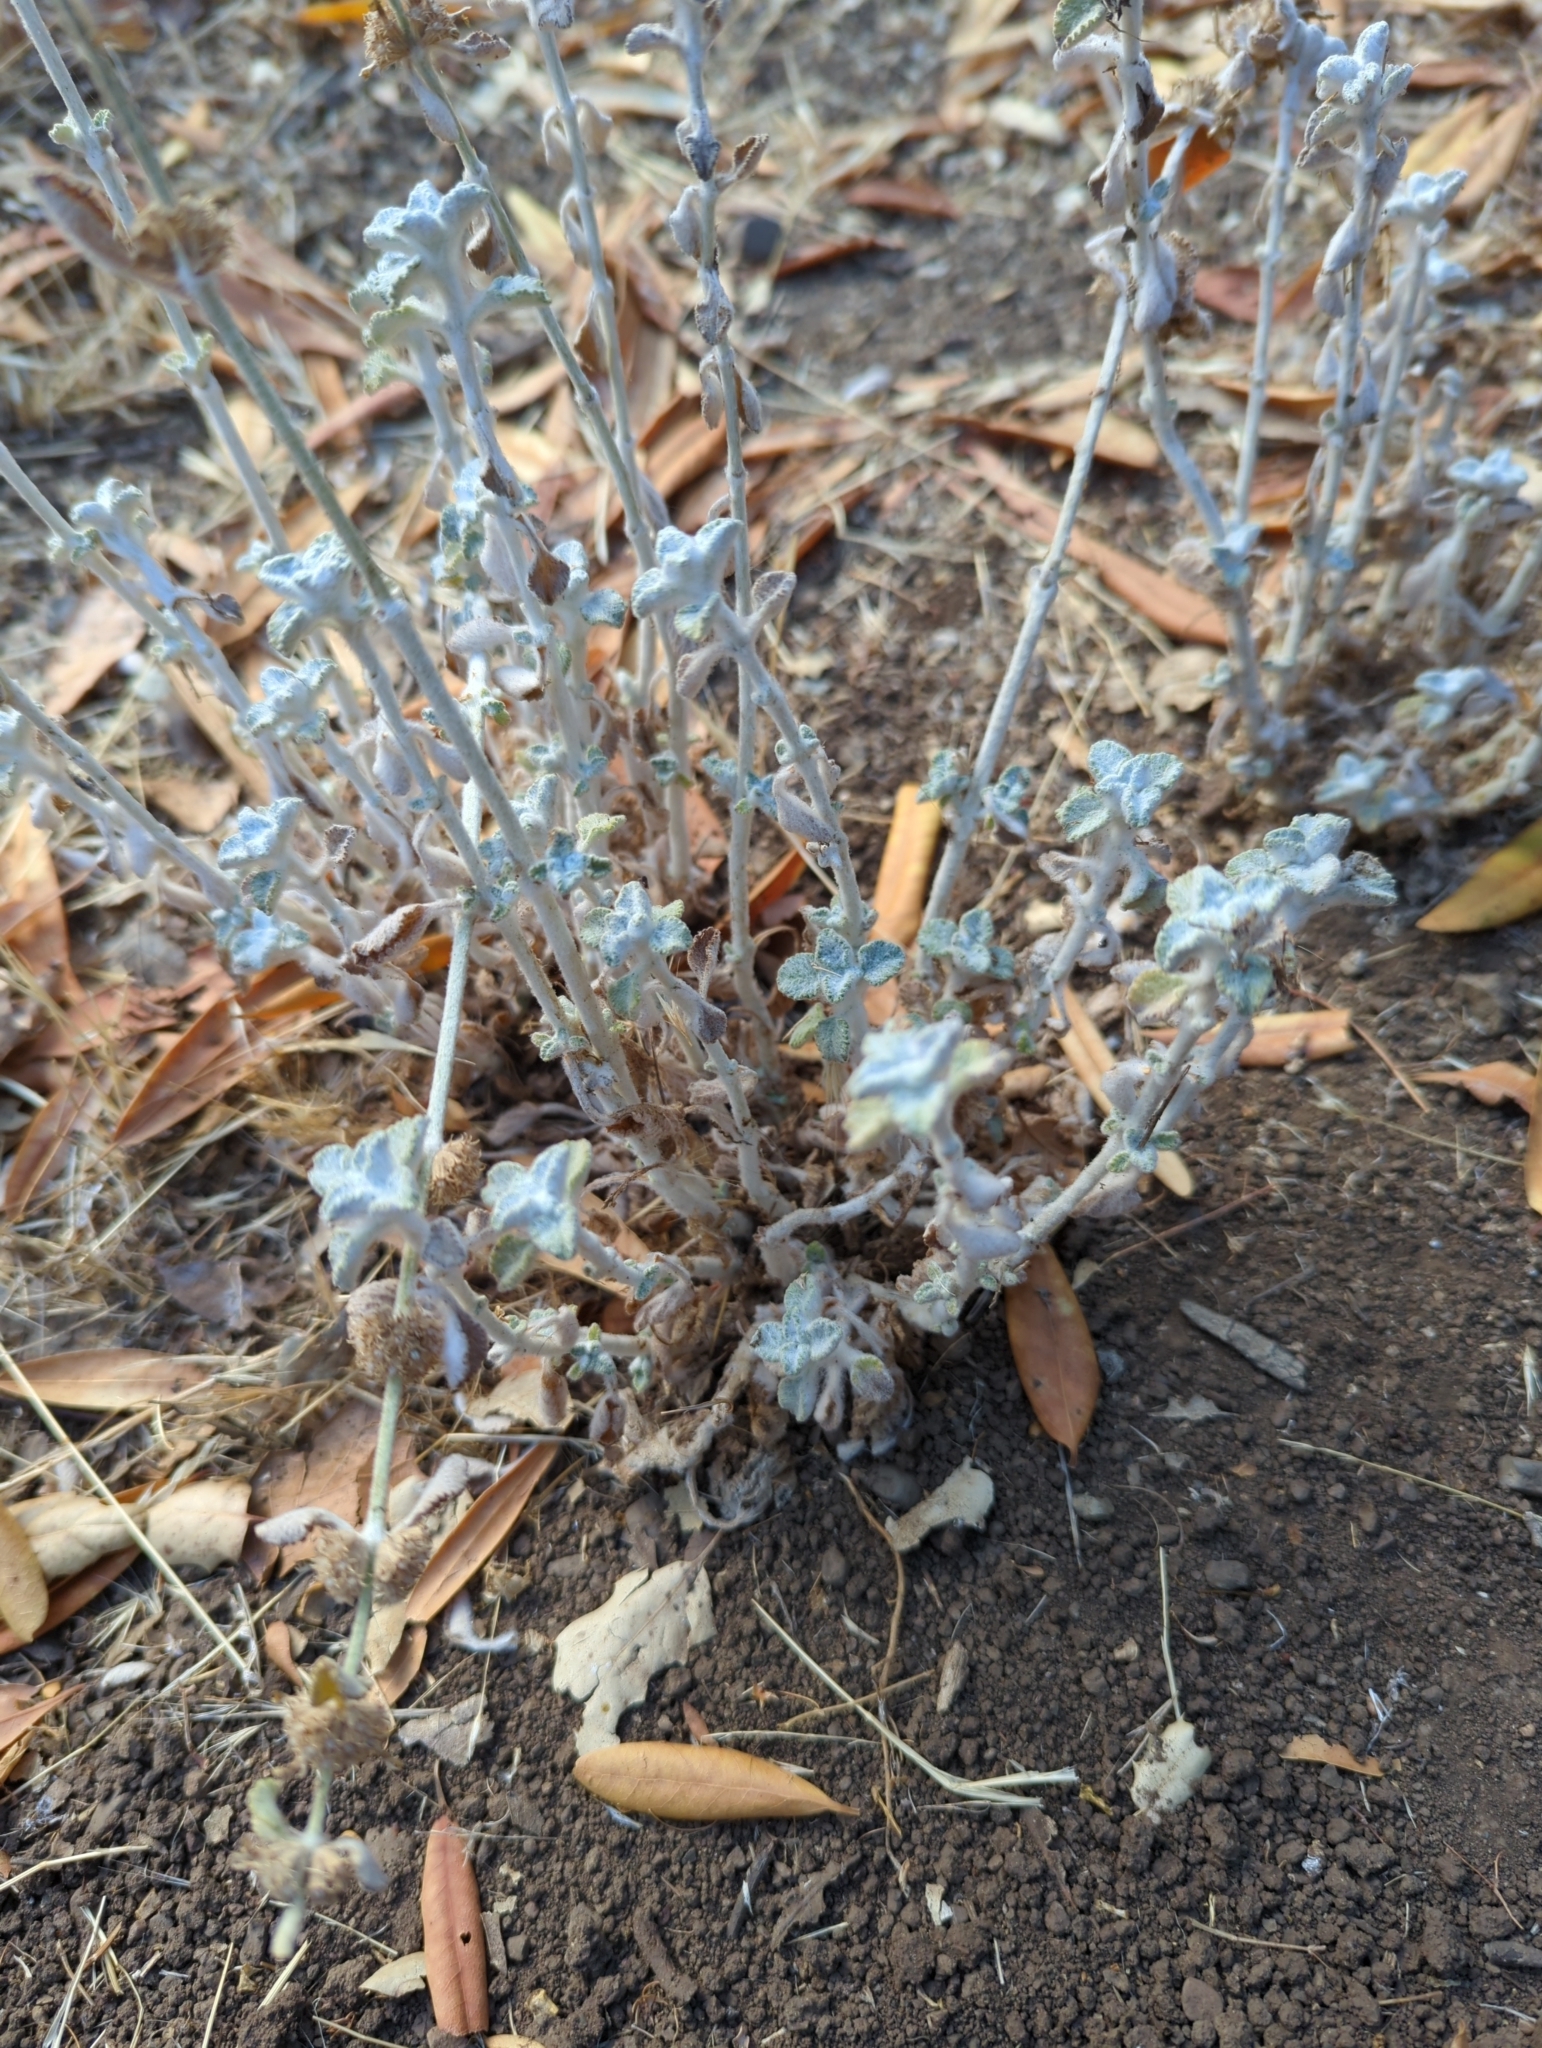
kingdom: Plantae
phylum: Tracheophyta
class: Magnoliopsida
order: Lamiales
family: Lamiaceae
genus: Marrubium
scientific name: Marrubium vulgare
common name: Horehound
